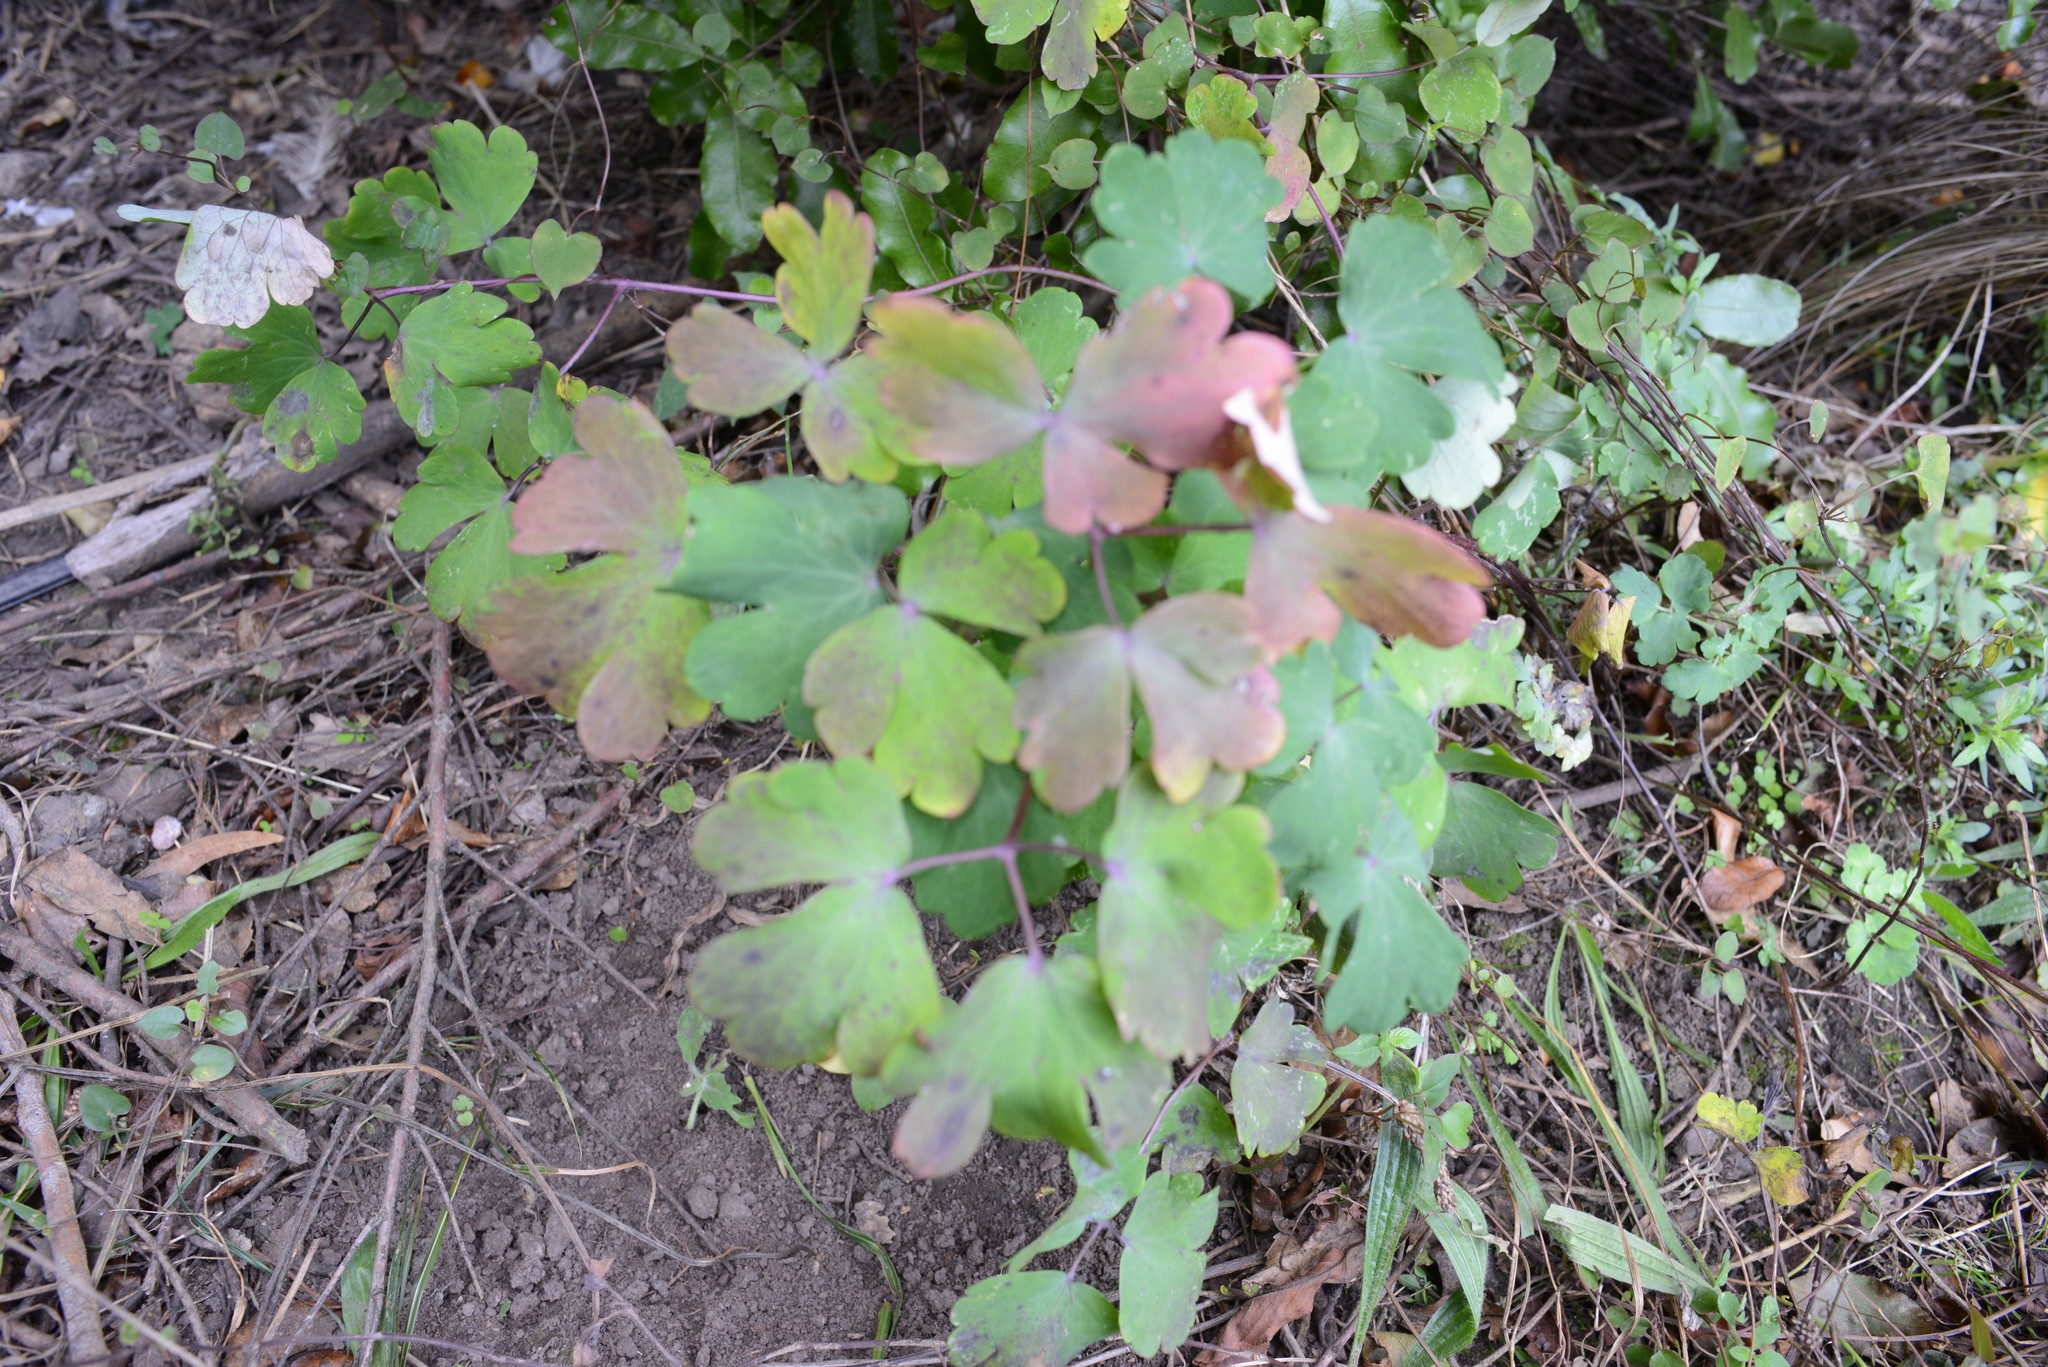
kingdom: Plantae
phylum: Tracheophyta
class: Magnoliopsida
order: Ranunculales
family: Ranunculaceae
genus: Aquilegia
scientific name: Aquilegia vulgaris
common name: Columbine
